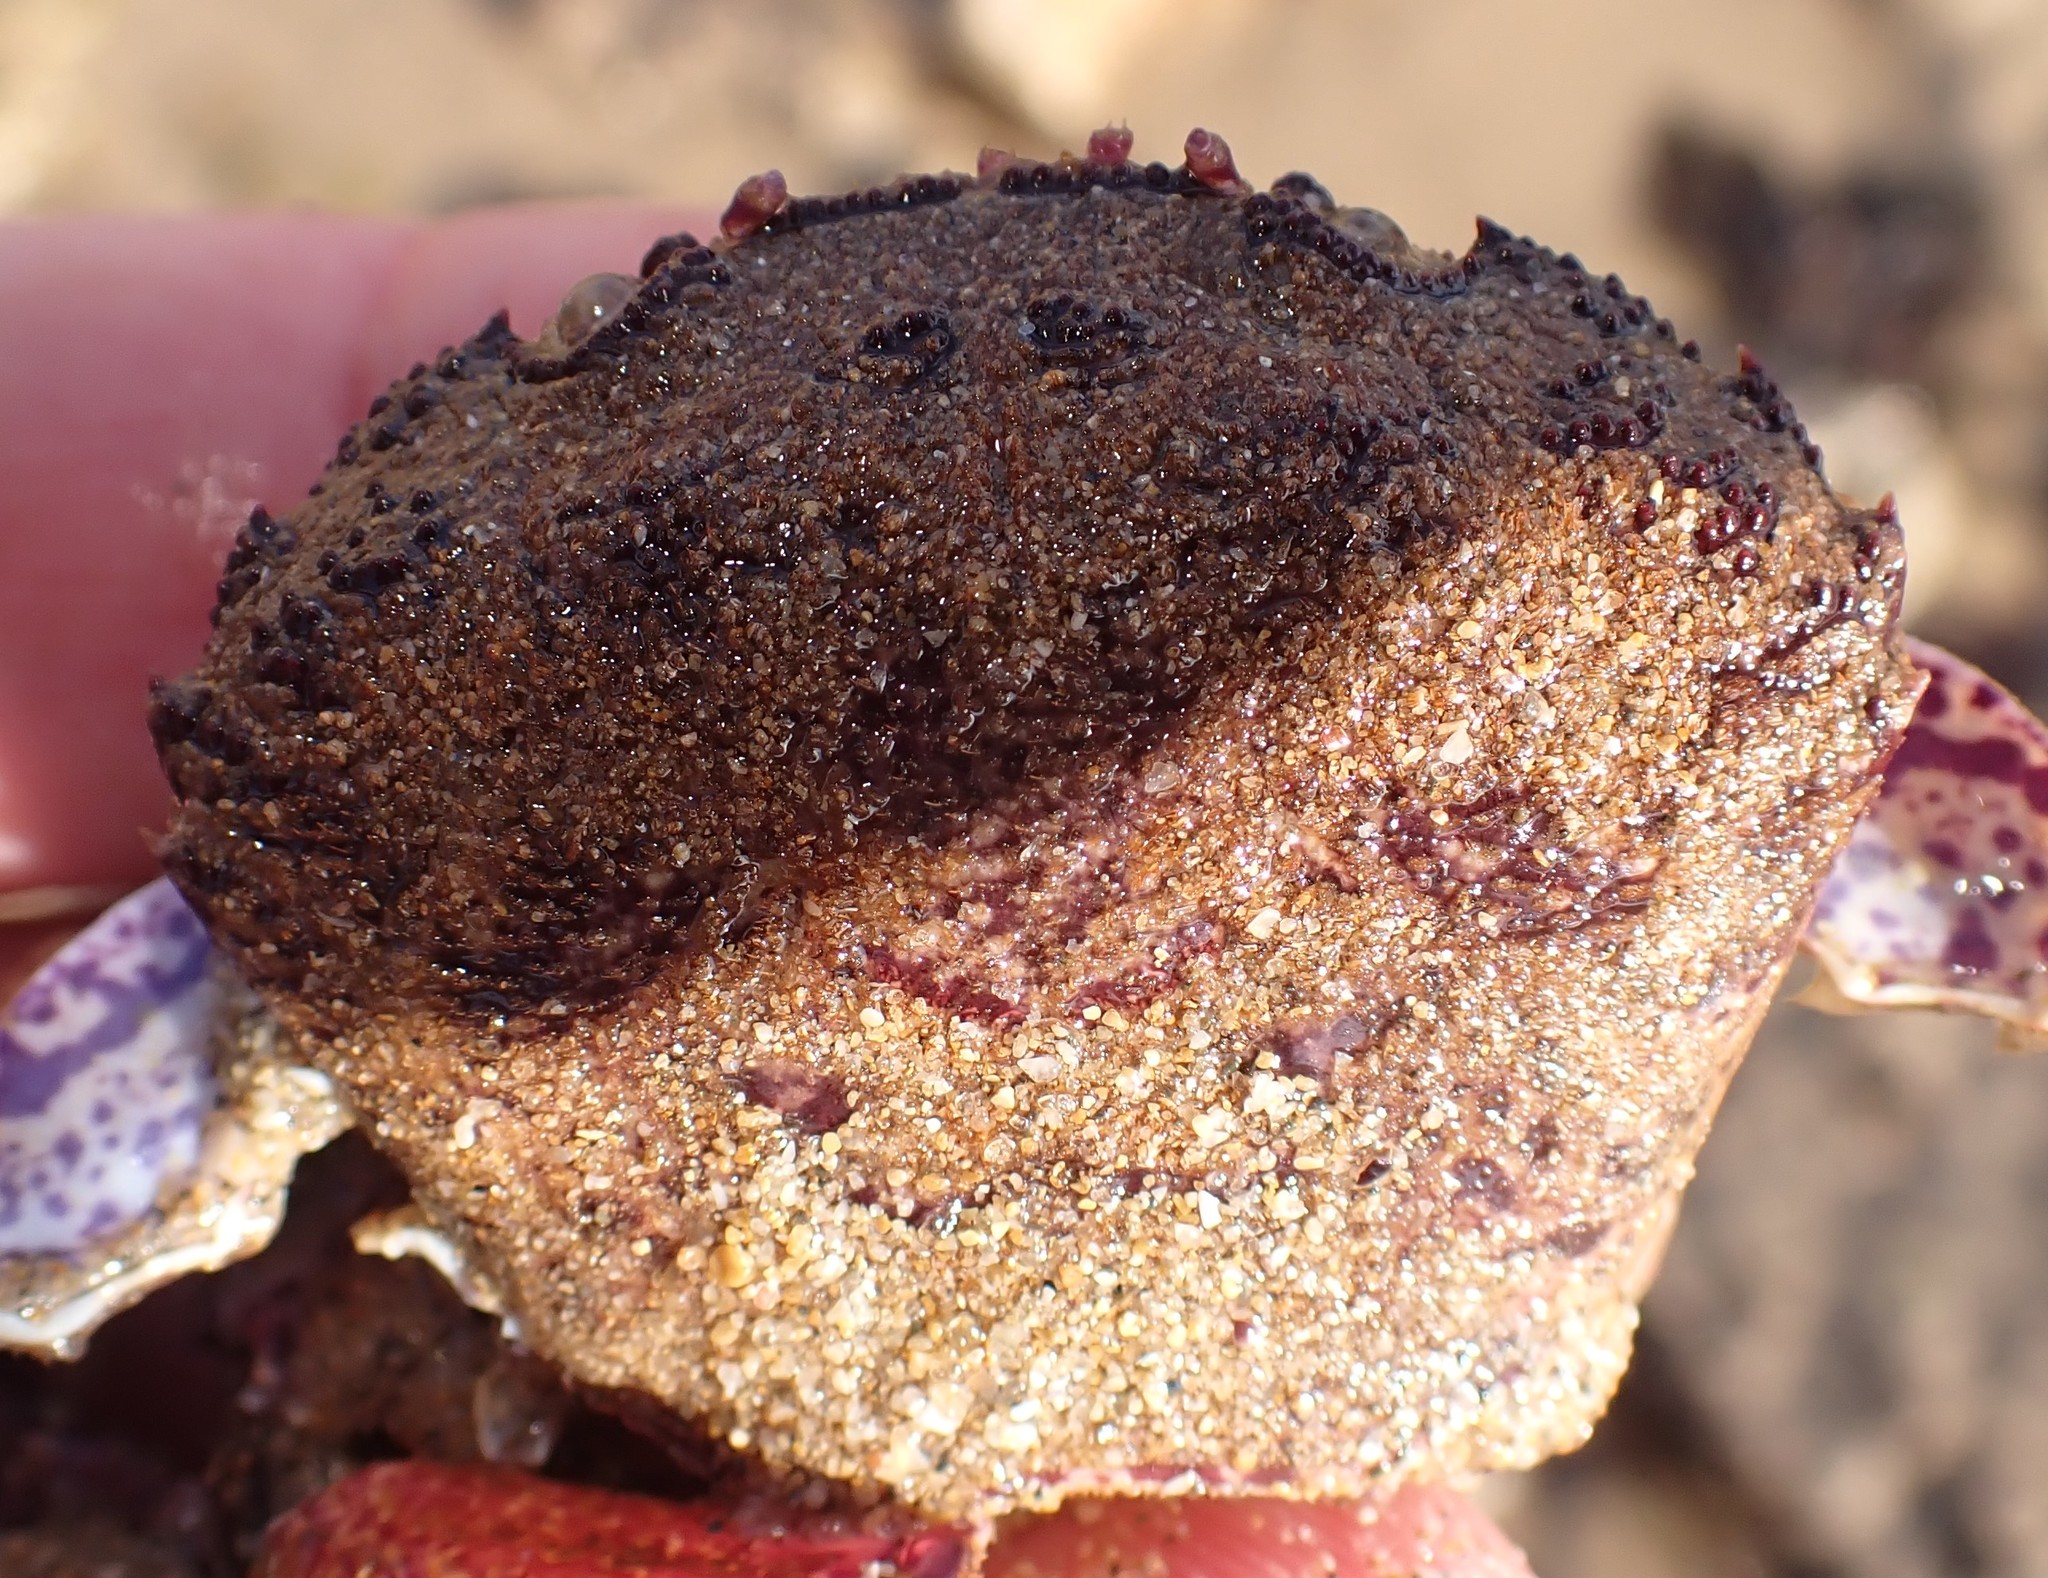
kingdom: Animalia
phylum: Arthropoda
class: Malacostraca
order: Decapoda
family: Geryonidae
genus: Nectocarcinus
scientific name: Nectocarcinus tuberculosus
